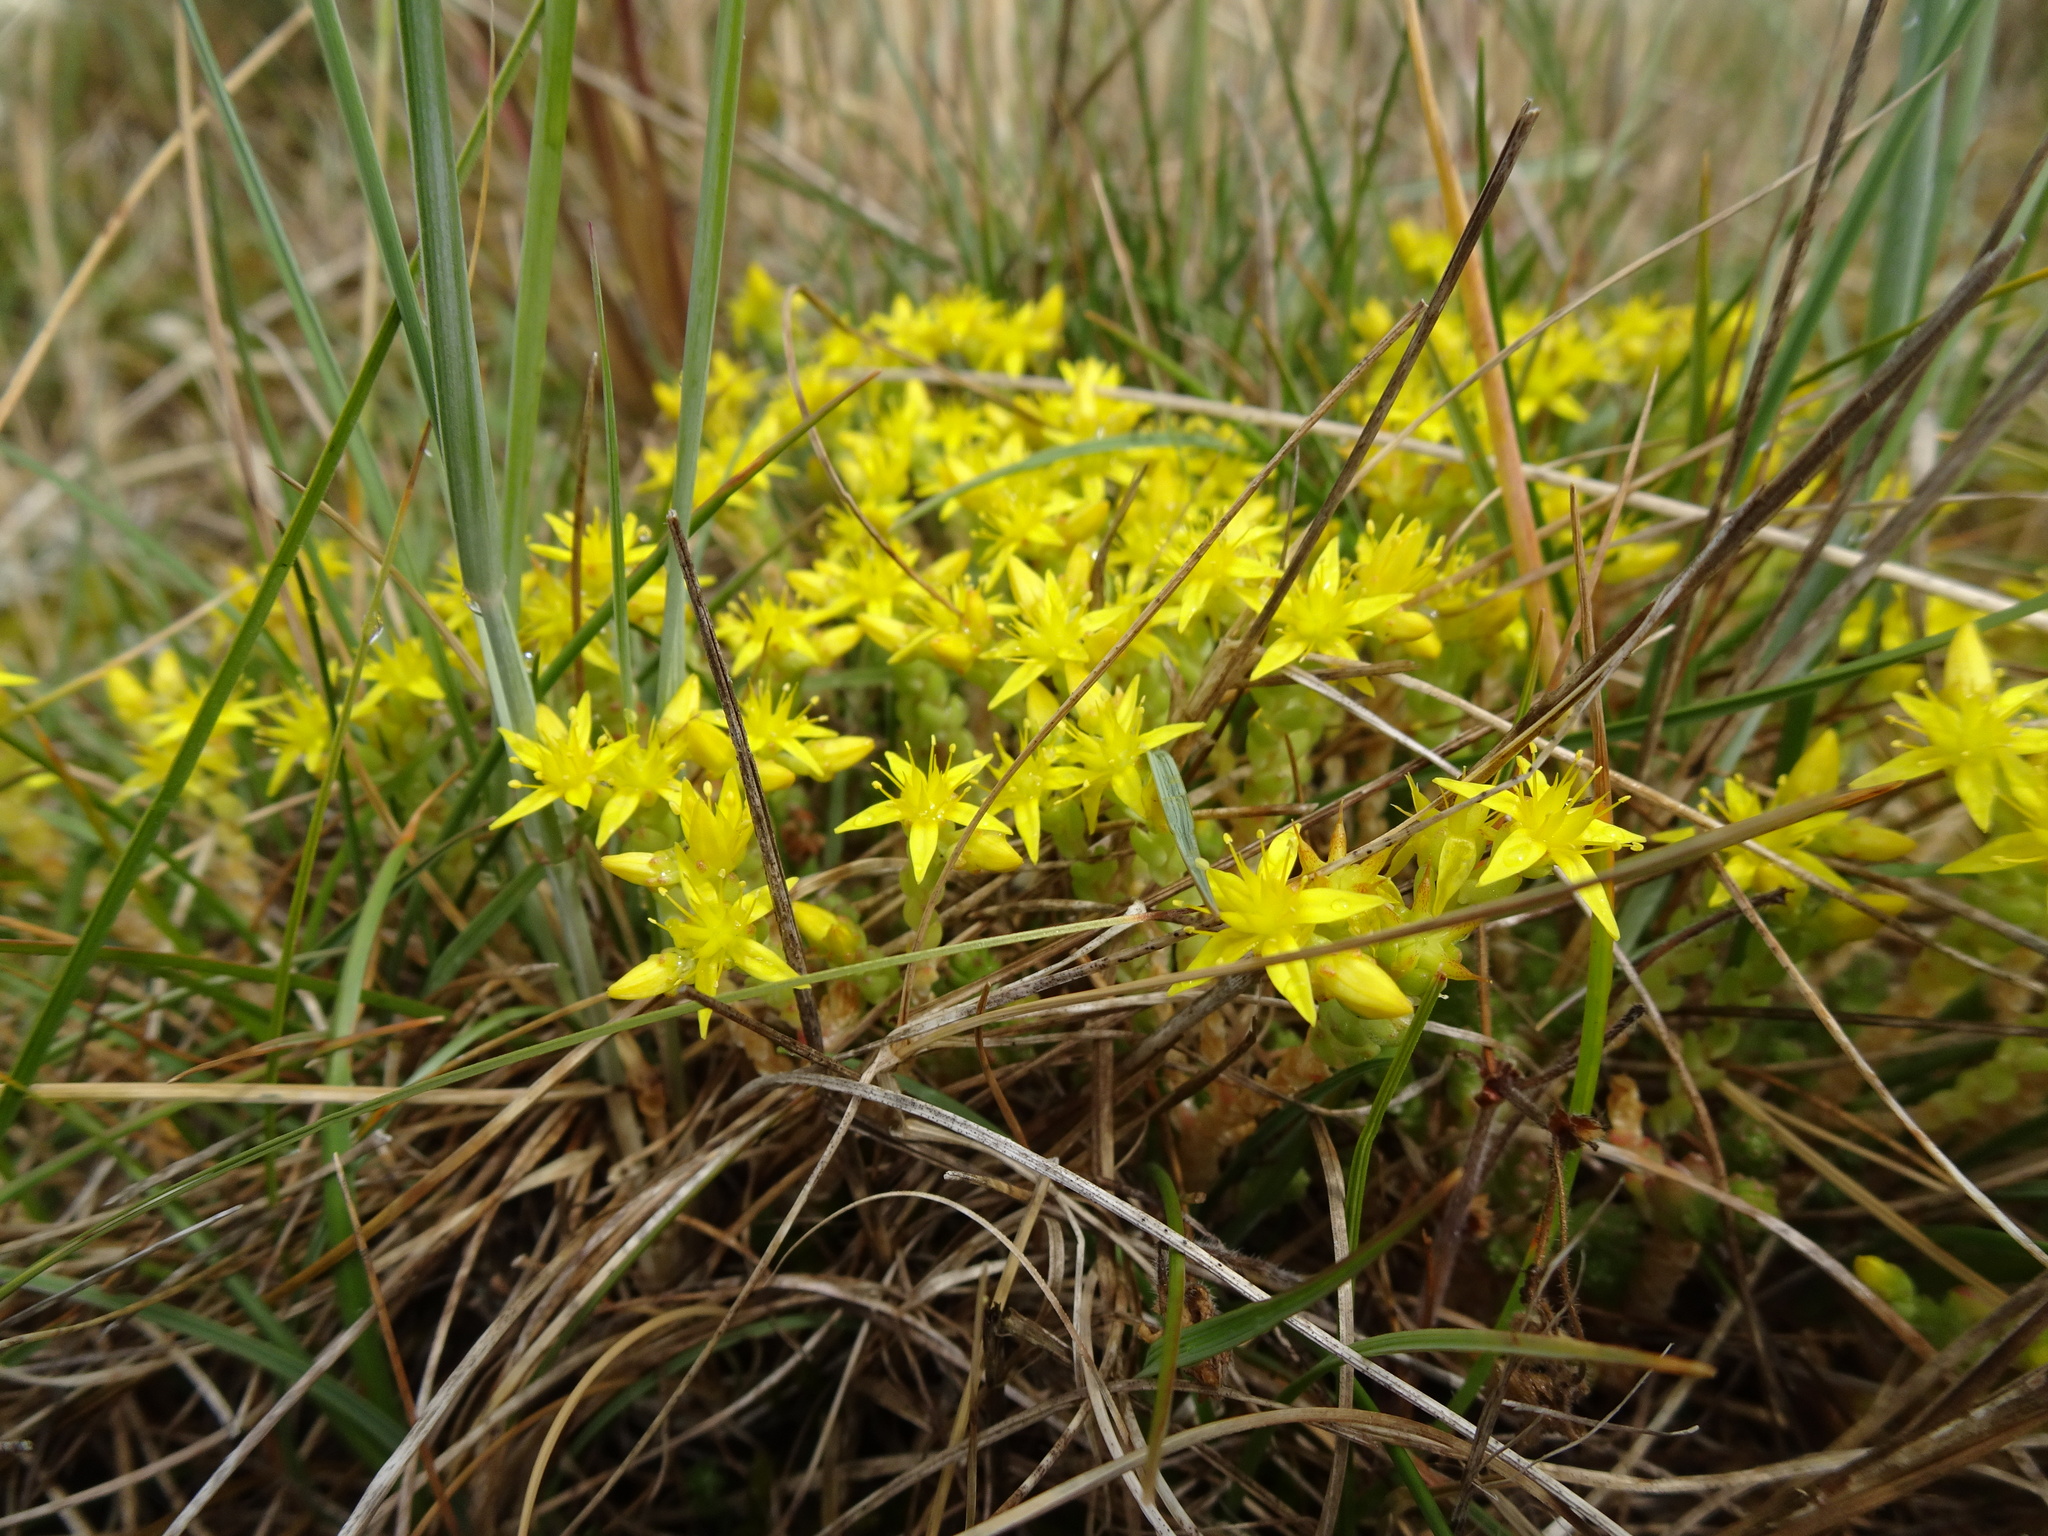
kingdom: Plantae
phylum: Tracheophyta
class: Magnoliopsida
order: Saxifragales
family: Crassulaceae
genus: Sedum
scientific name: Sedum acre
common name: Biting stonecrop
